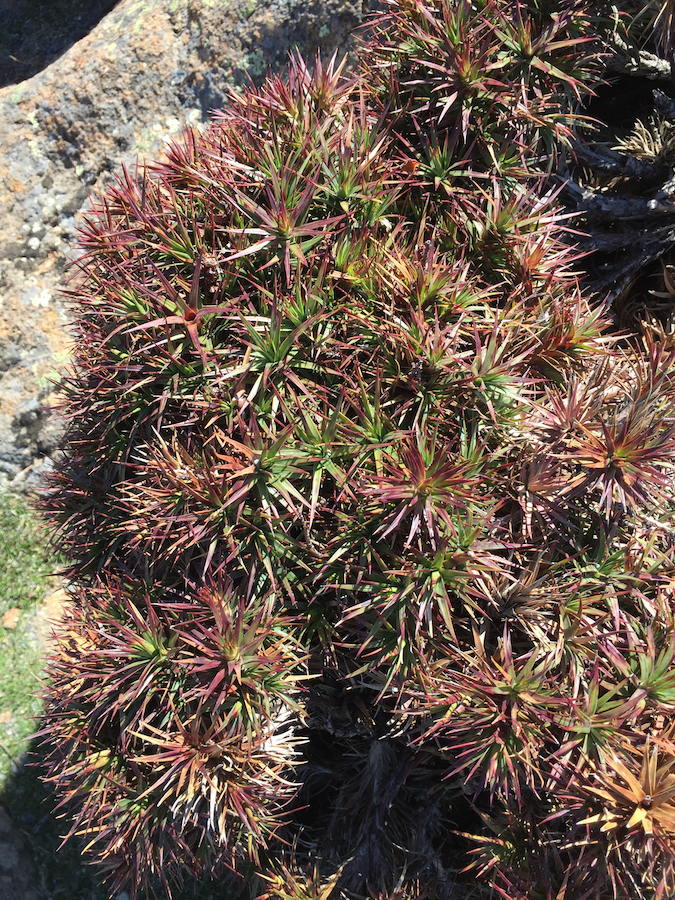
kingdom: Plantae
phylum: Tracheophyta
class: Magnoliopsida
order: Ericales
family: Ericaceae
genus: Dracophyllum
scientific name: Dracophyllum persistentifolium
